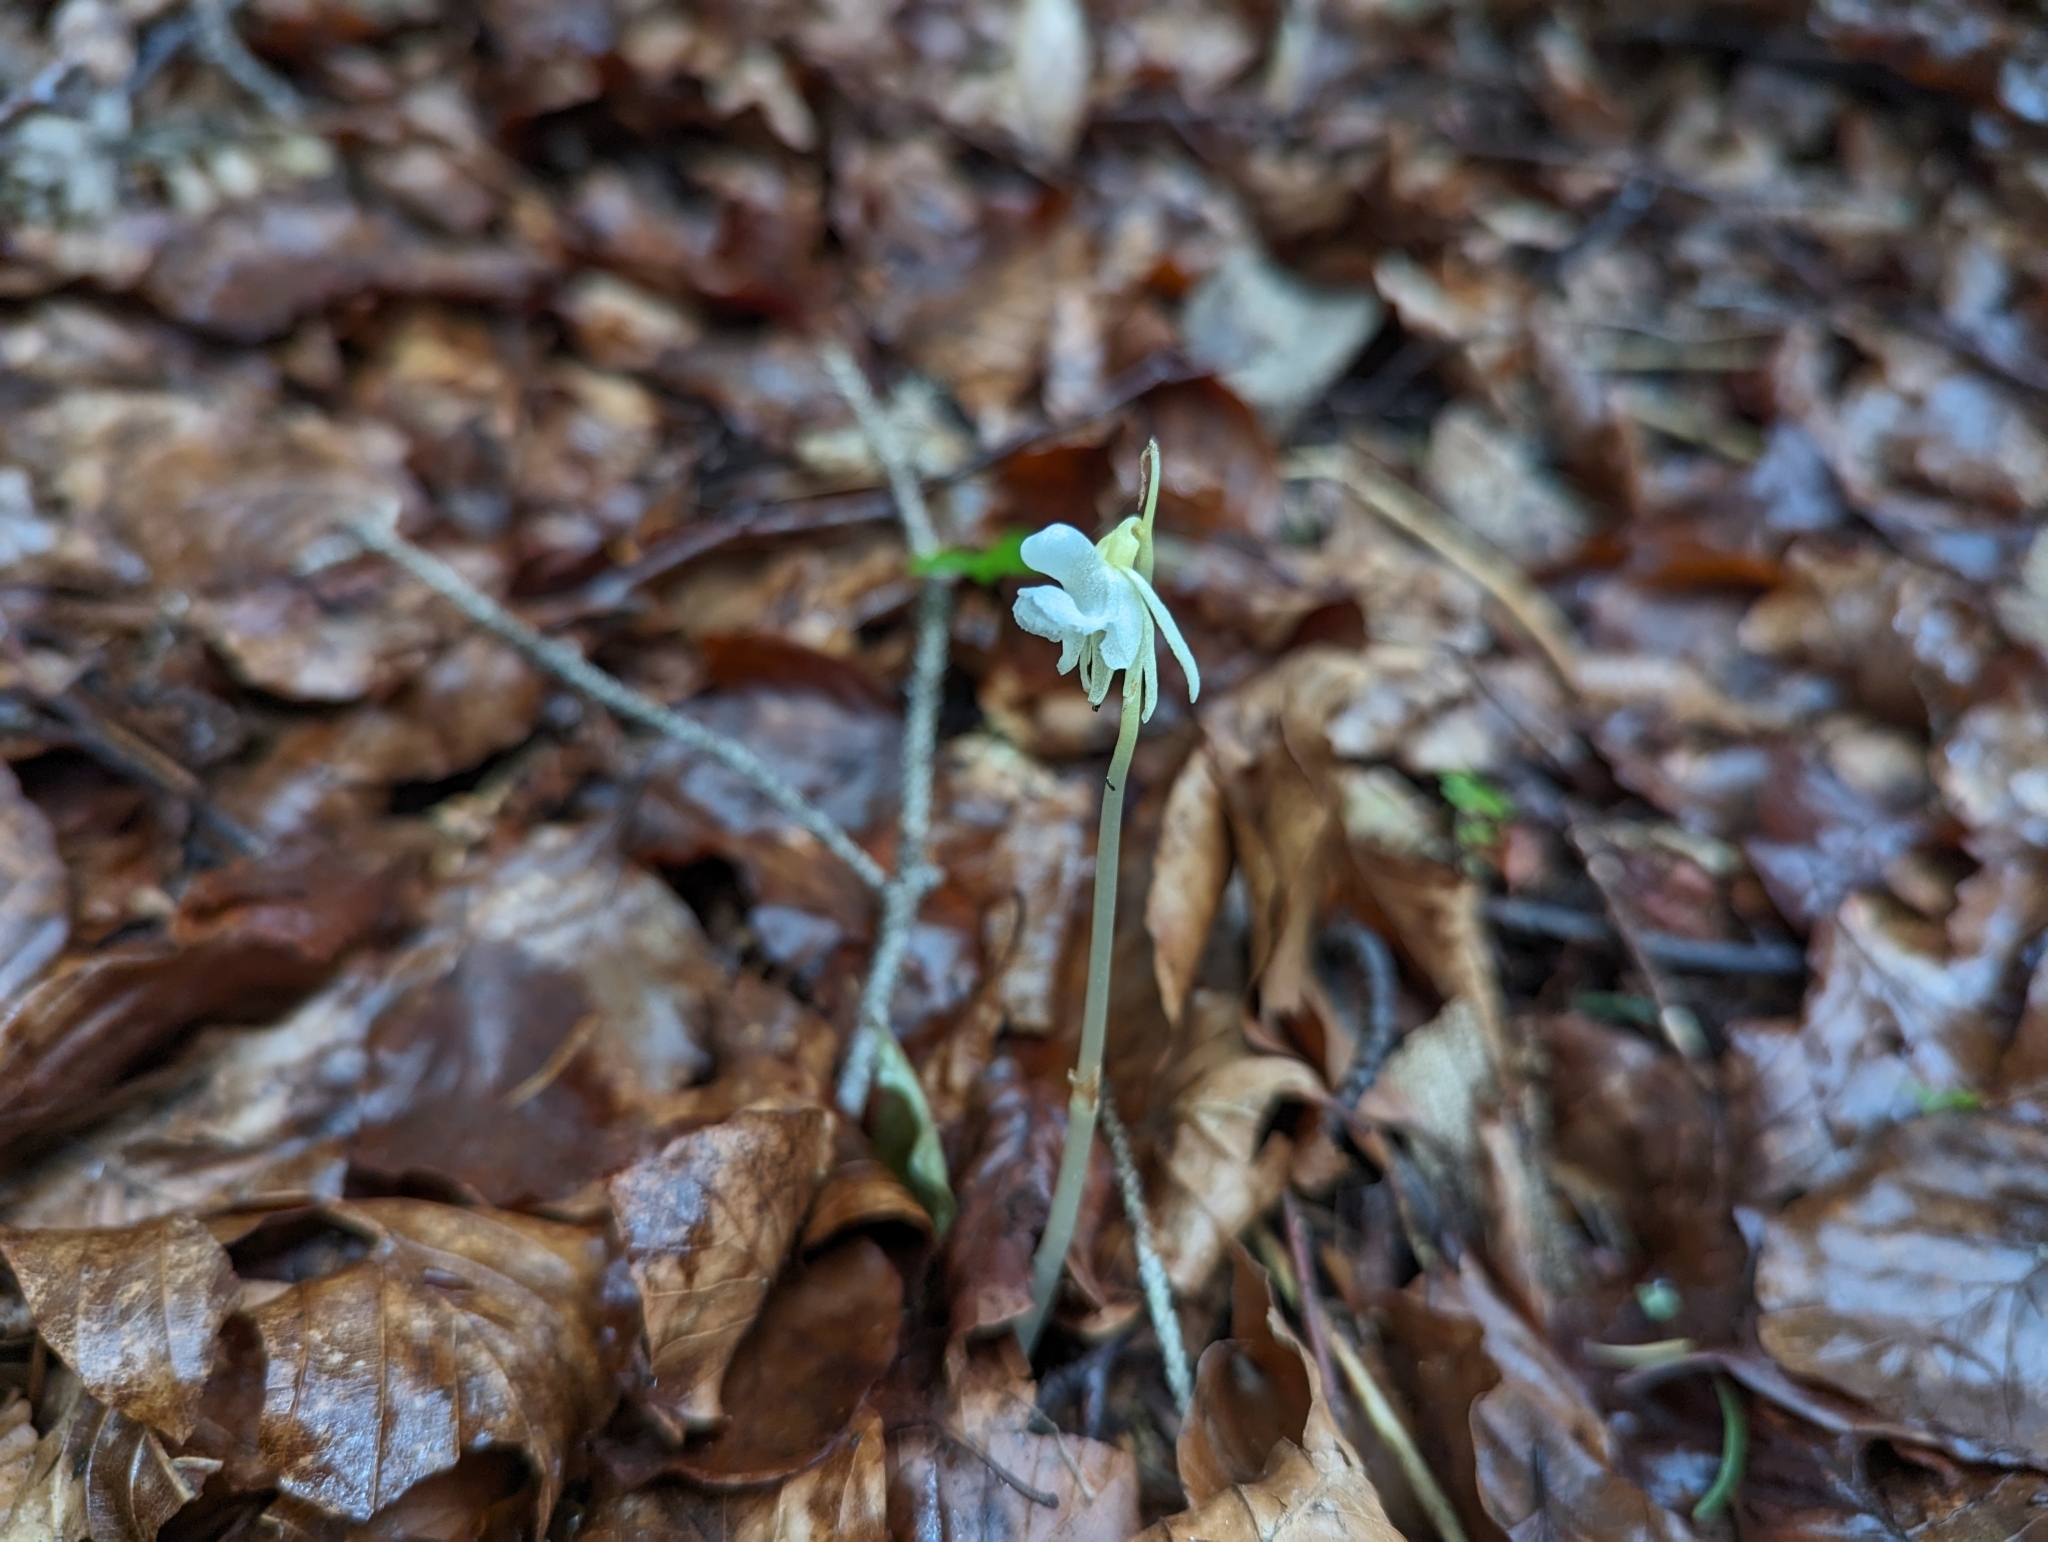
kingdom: Plantae
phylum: Tracheophyta
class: Liliopsida
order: Asparagales
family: Orchidaceae
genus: Epipogium
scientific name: Epipogium aphyllum
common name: Ghost orchid
